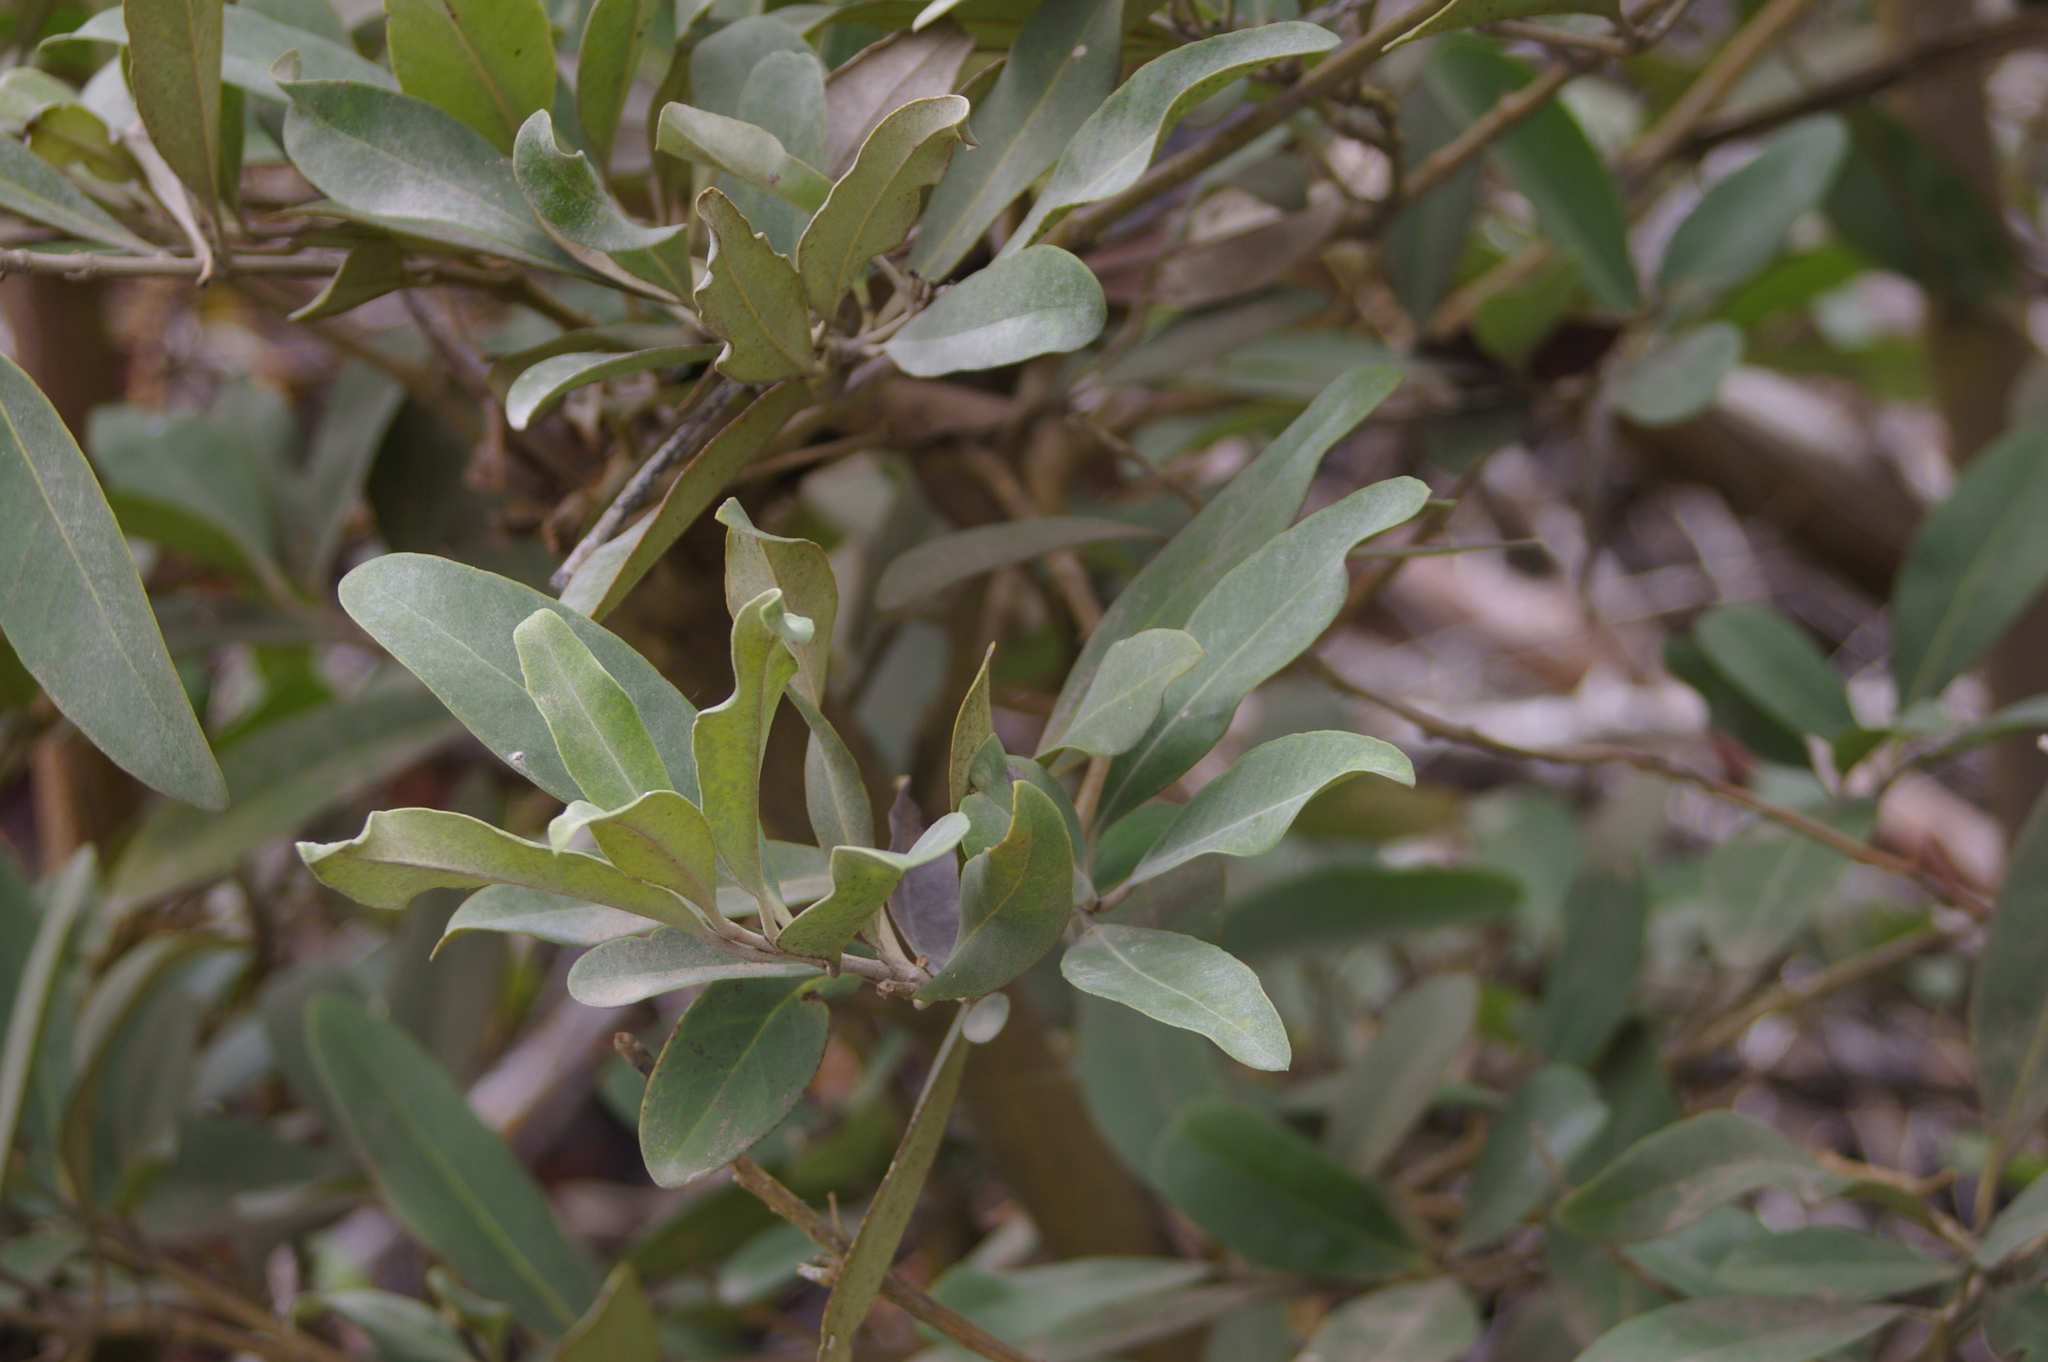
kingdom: Plantae
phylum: Tracheophyta
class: Magnoliopsida
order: Lamiales
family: Acanthaceae
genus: Avicennia
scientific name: Avicennia germinans
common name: Black mangrove
